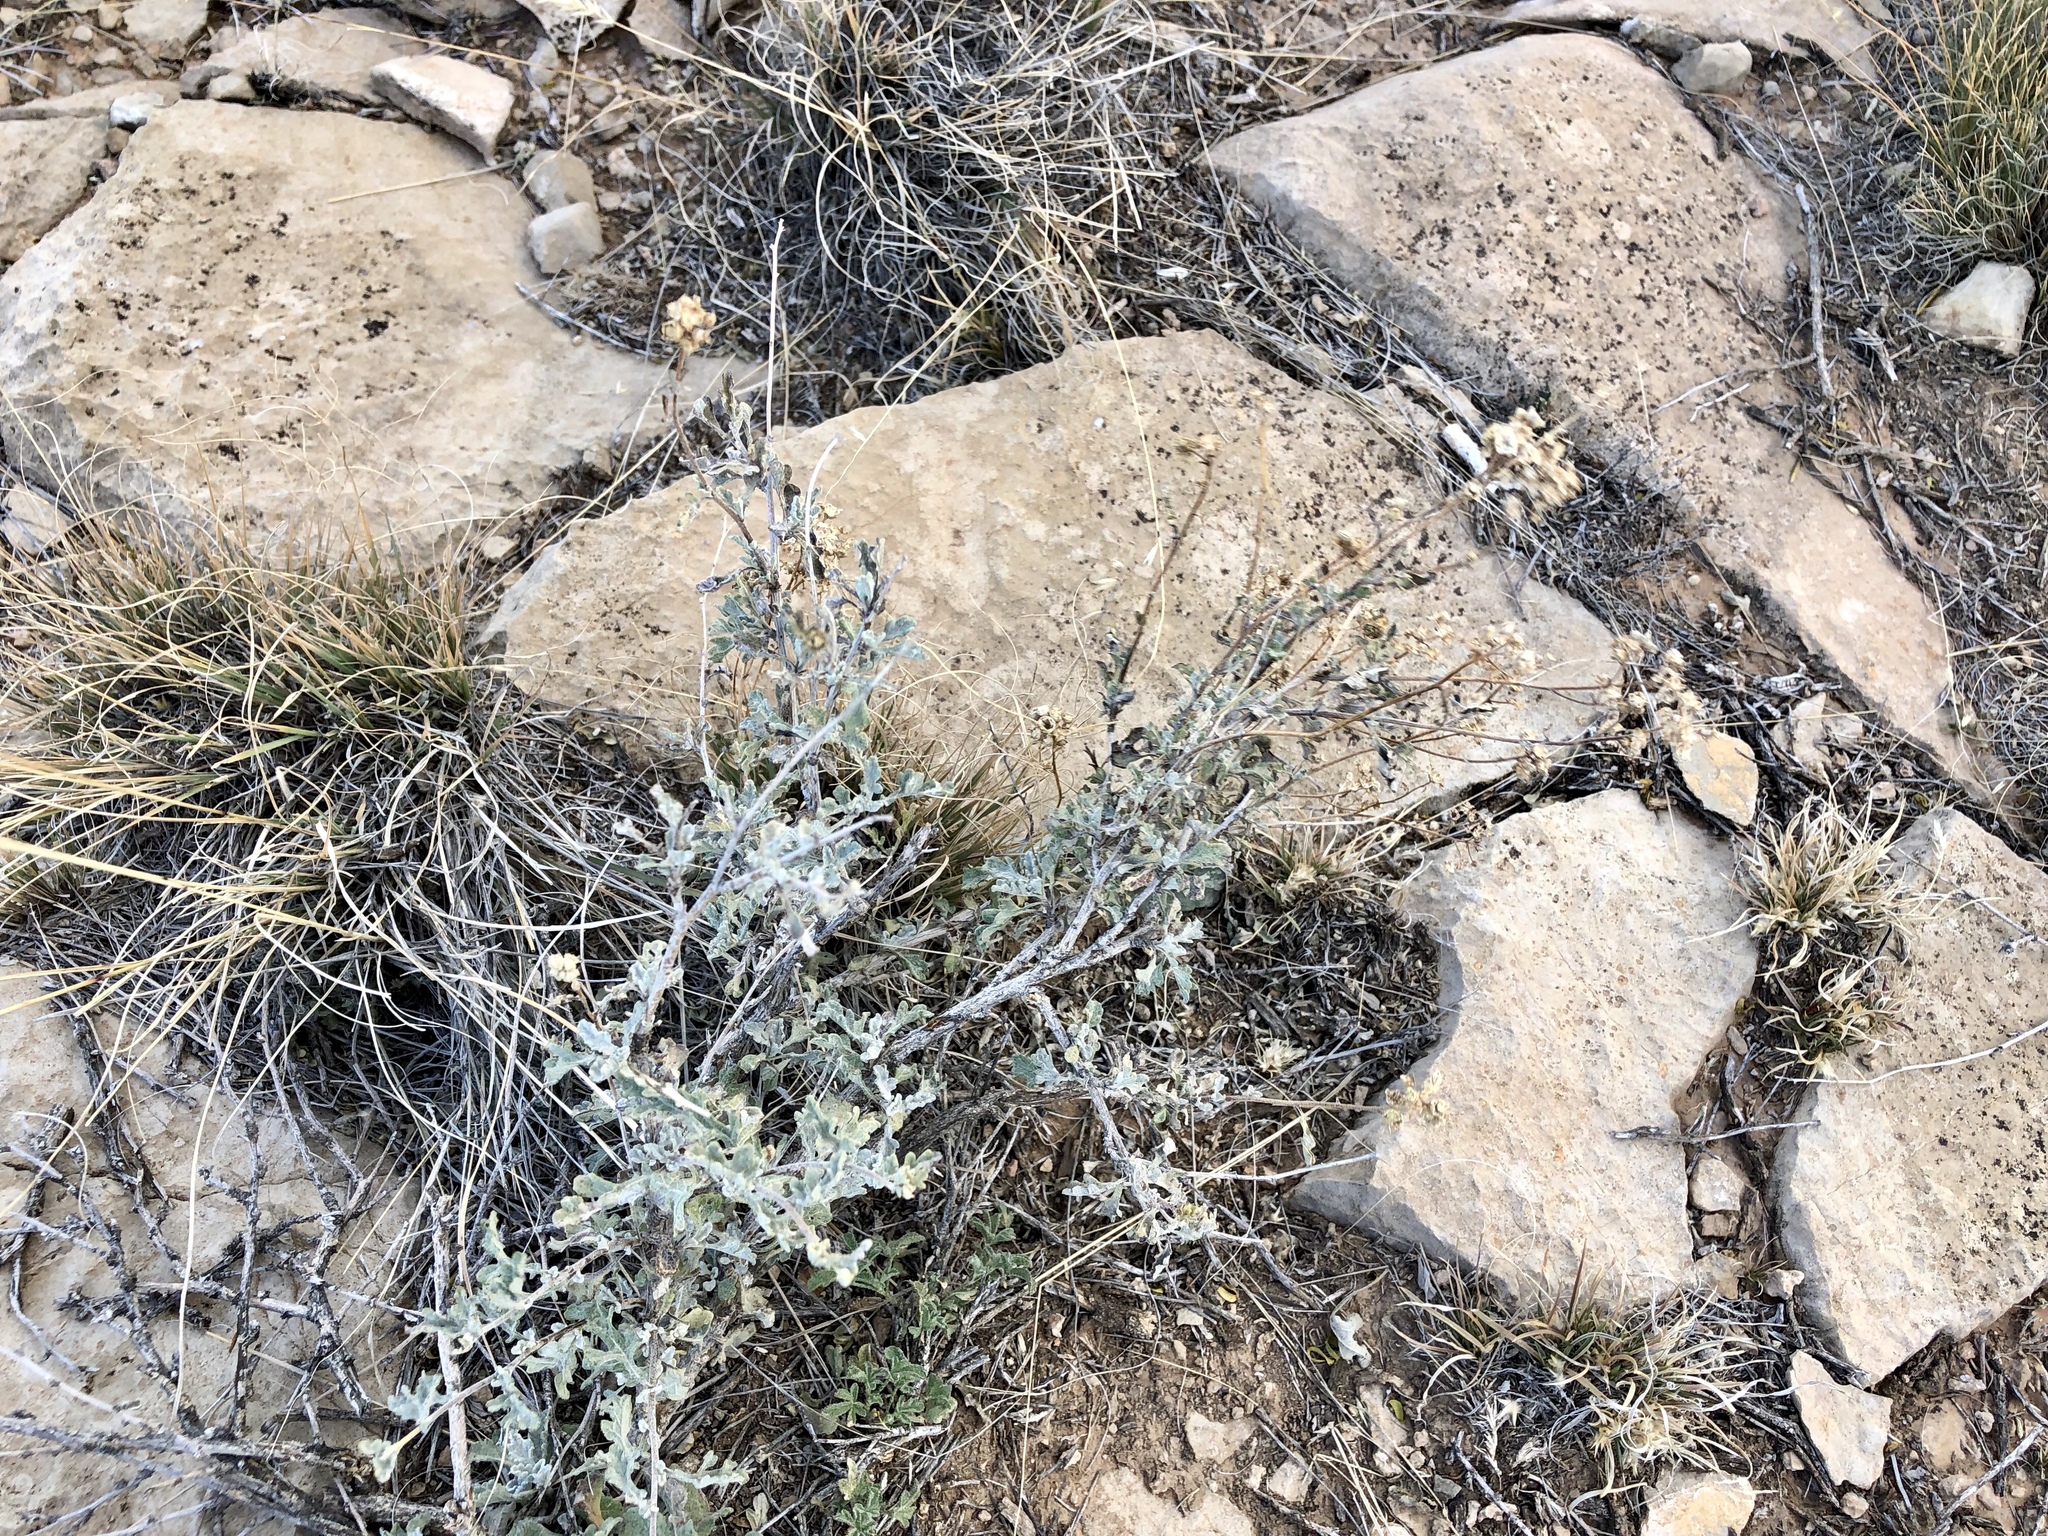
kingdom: Plantae
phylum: Tracheophyta
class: Magnoliopsida
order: Asterales
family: Asteraceae
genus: Parthenium
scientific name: Parthenium incanum
